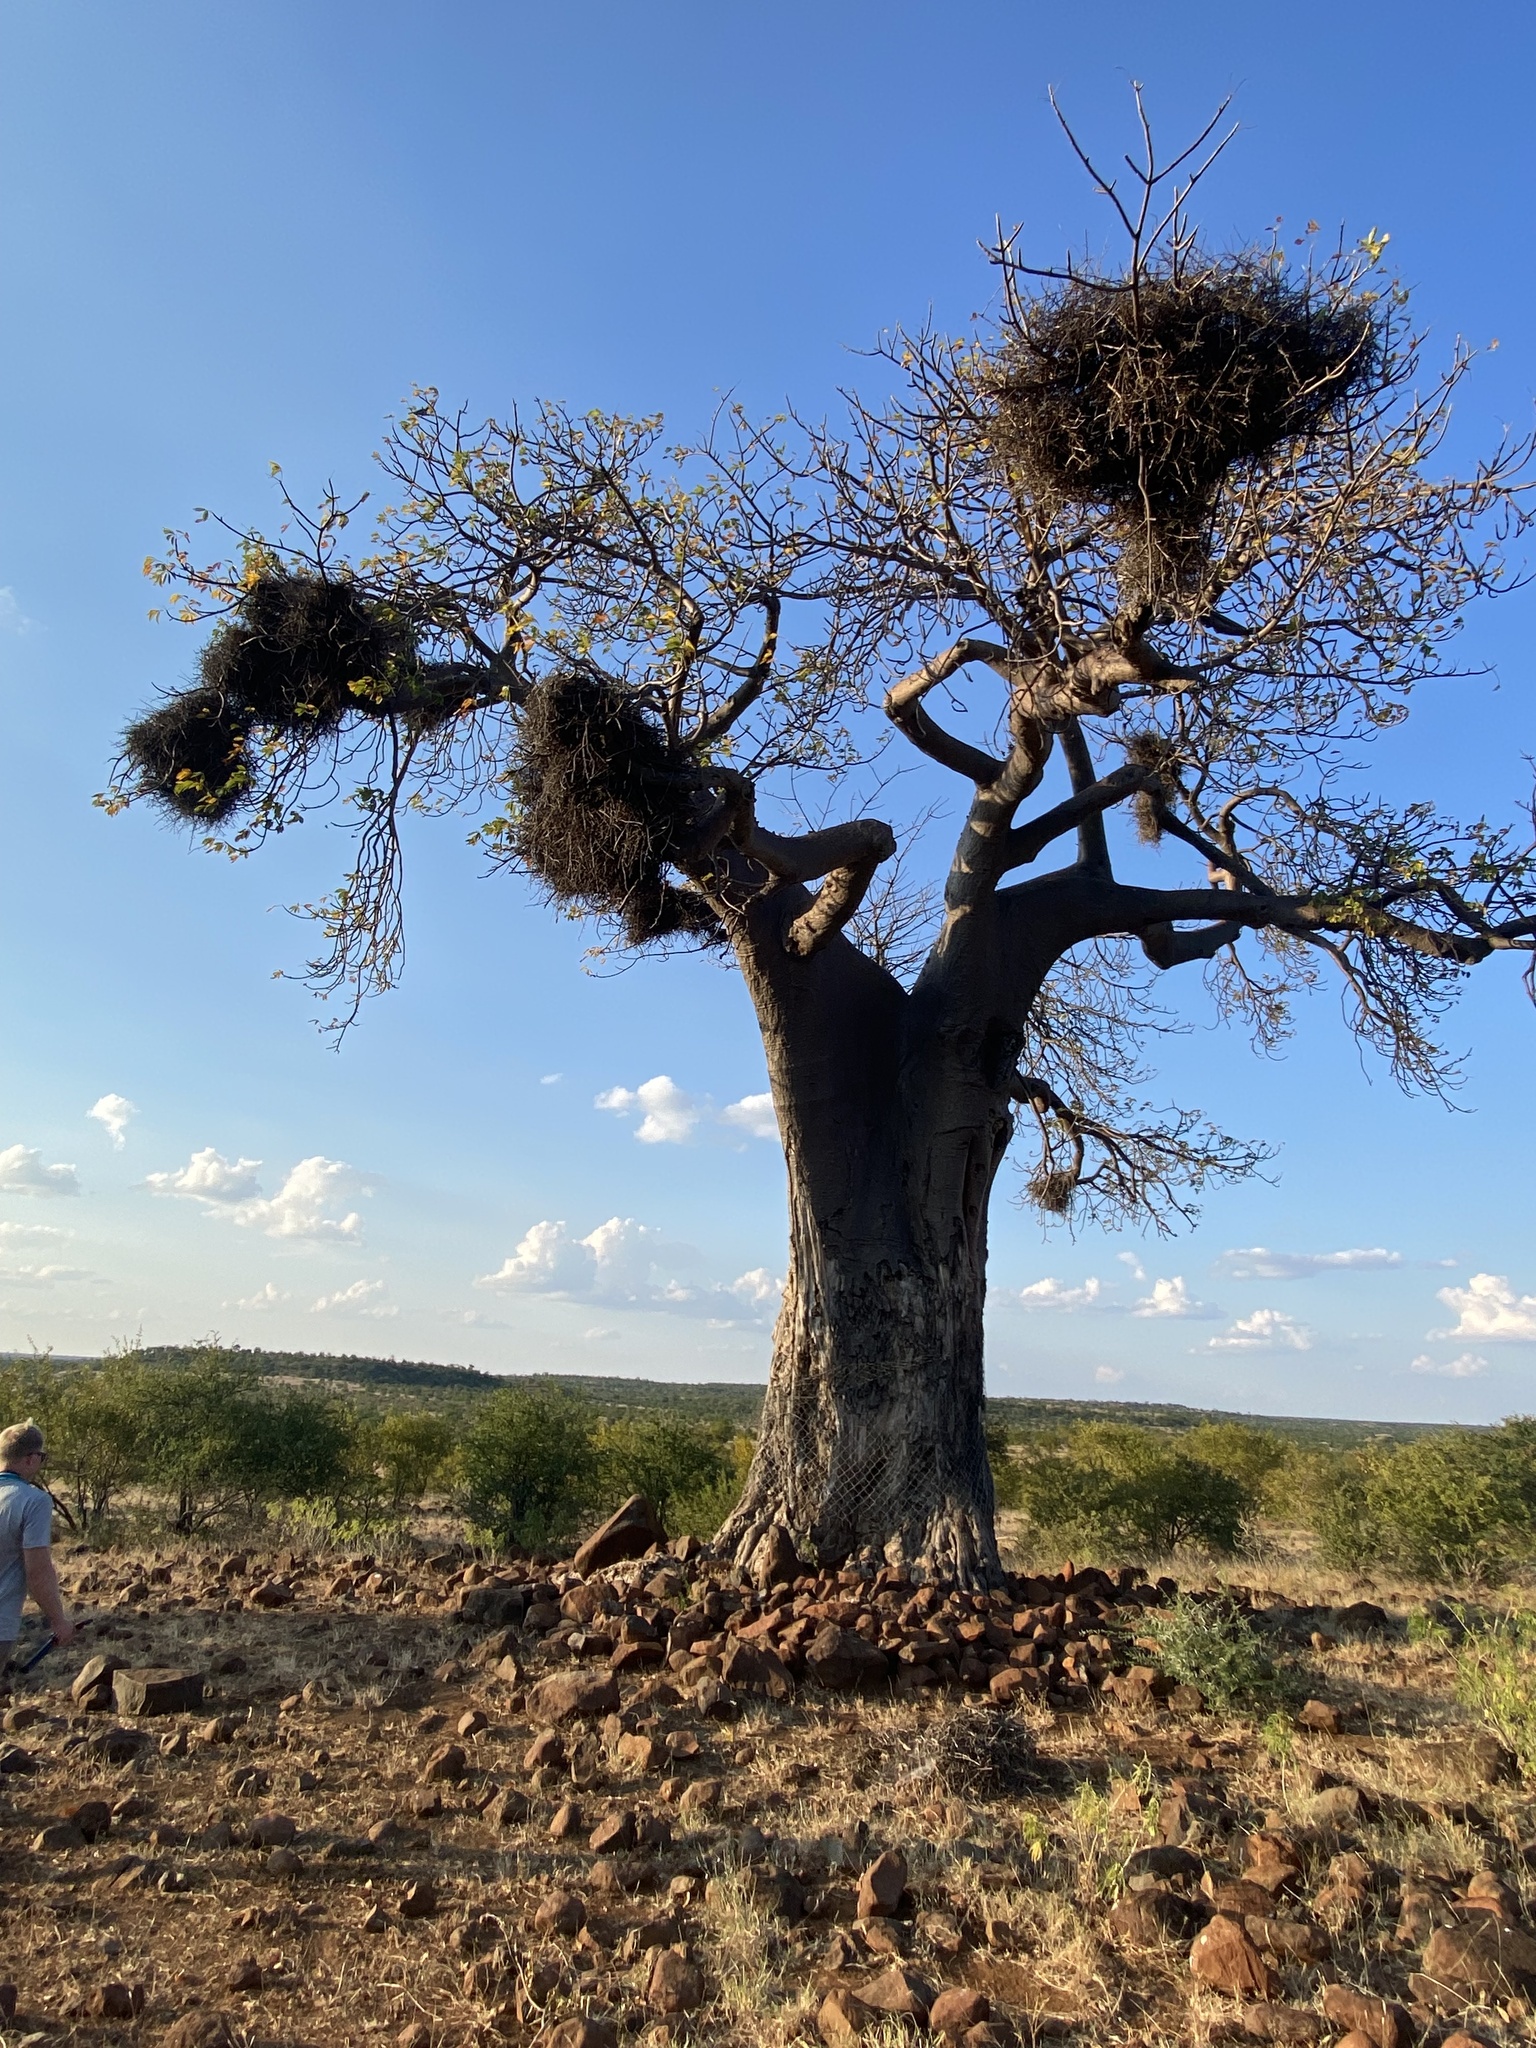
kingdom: Plantae
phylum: Tracheophyta
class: Magnoliopsida
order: Malvales
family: Malvaceae
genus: Adansonia
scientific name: Adansonia digitata
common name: Dead-rat-tree
